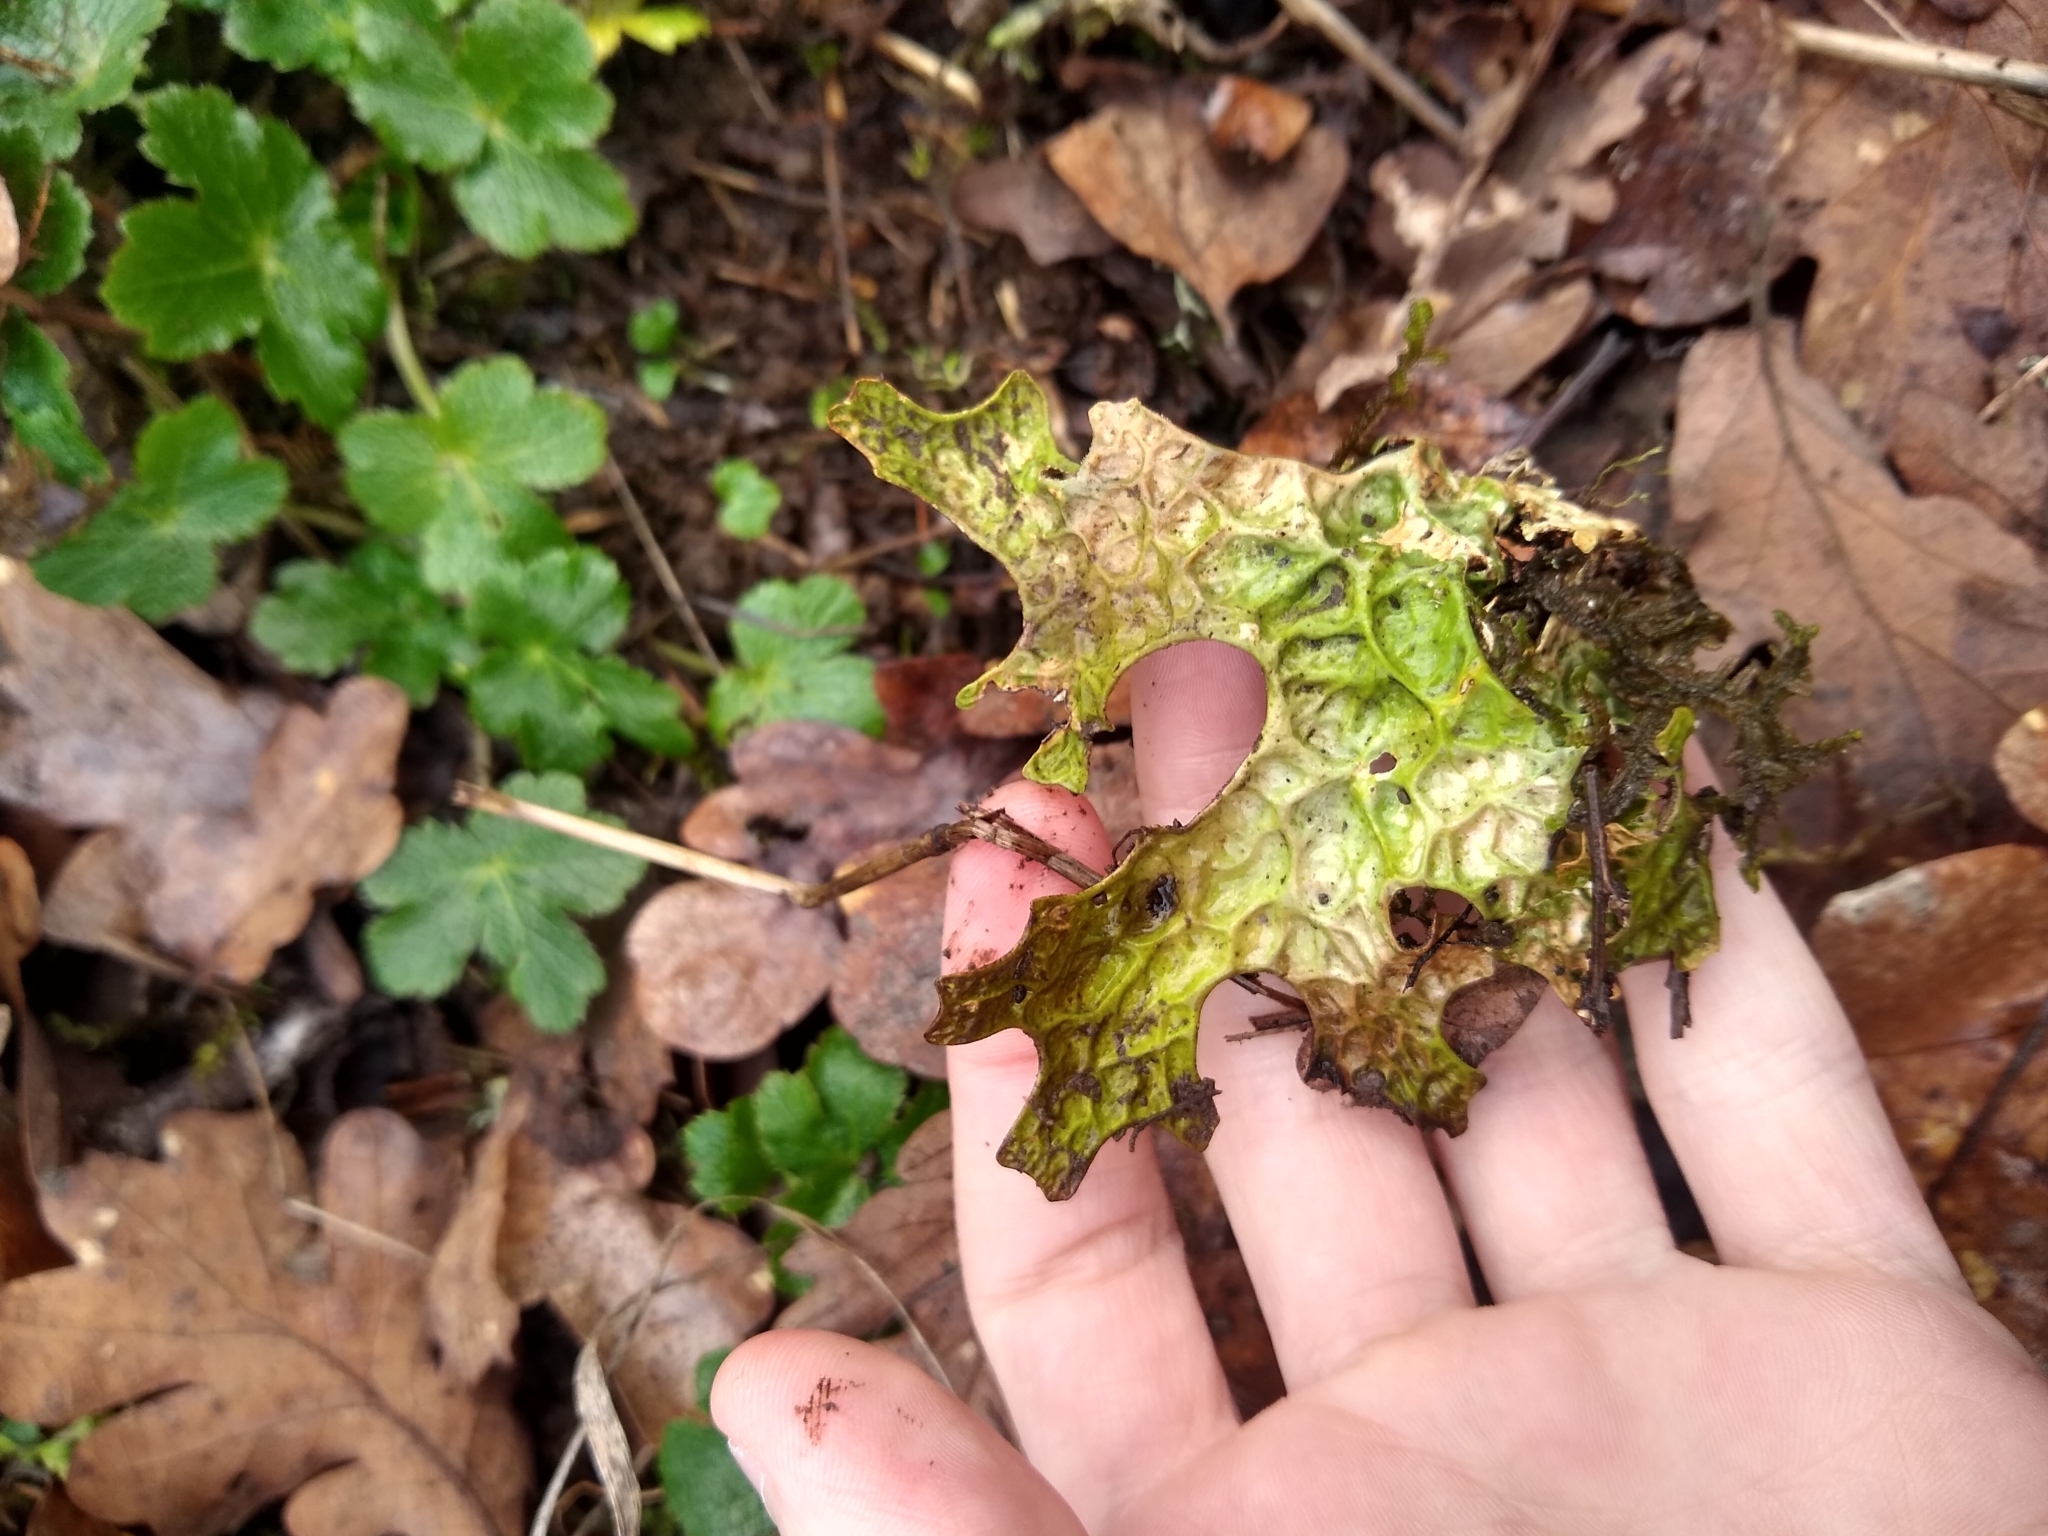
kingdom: Fungi
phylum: Ascomycota
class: Lecanoromycetes
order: Peltigerales
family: Lobariaceae
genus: Lobaria
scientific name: Lobaria pulmonaria
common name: Lungwort
